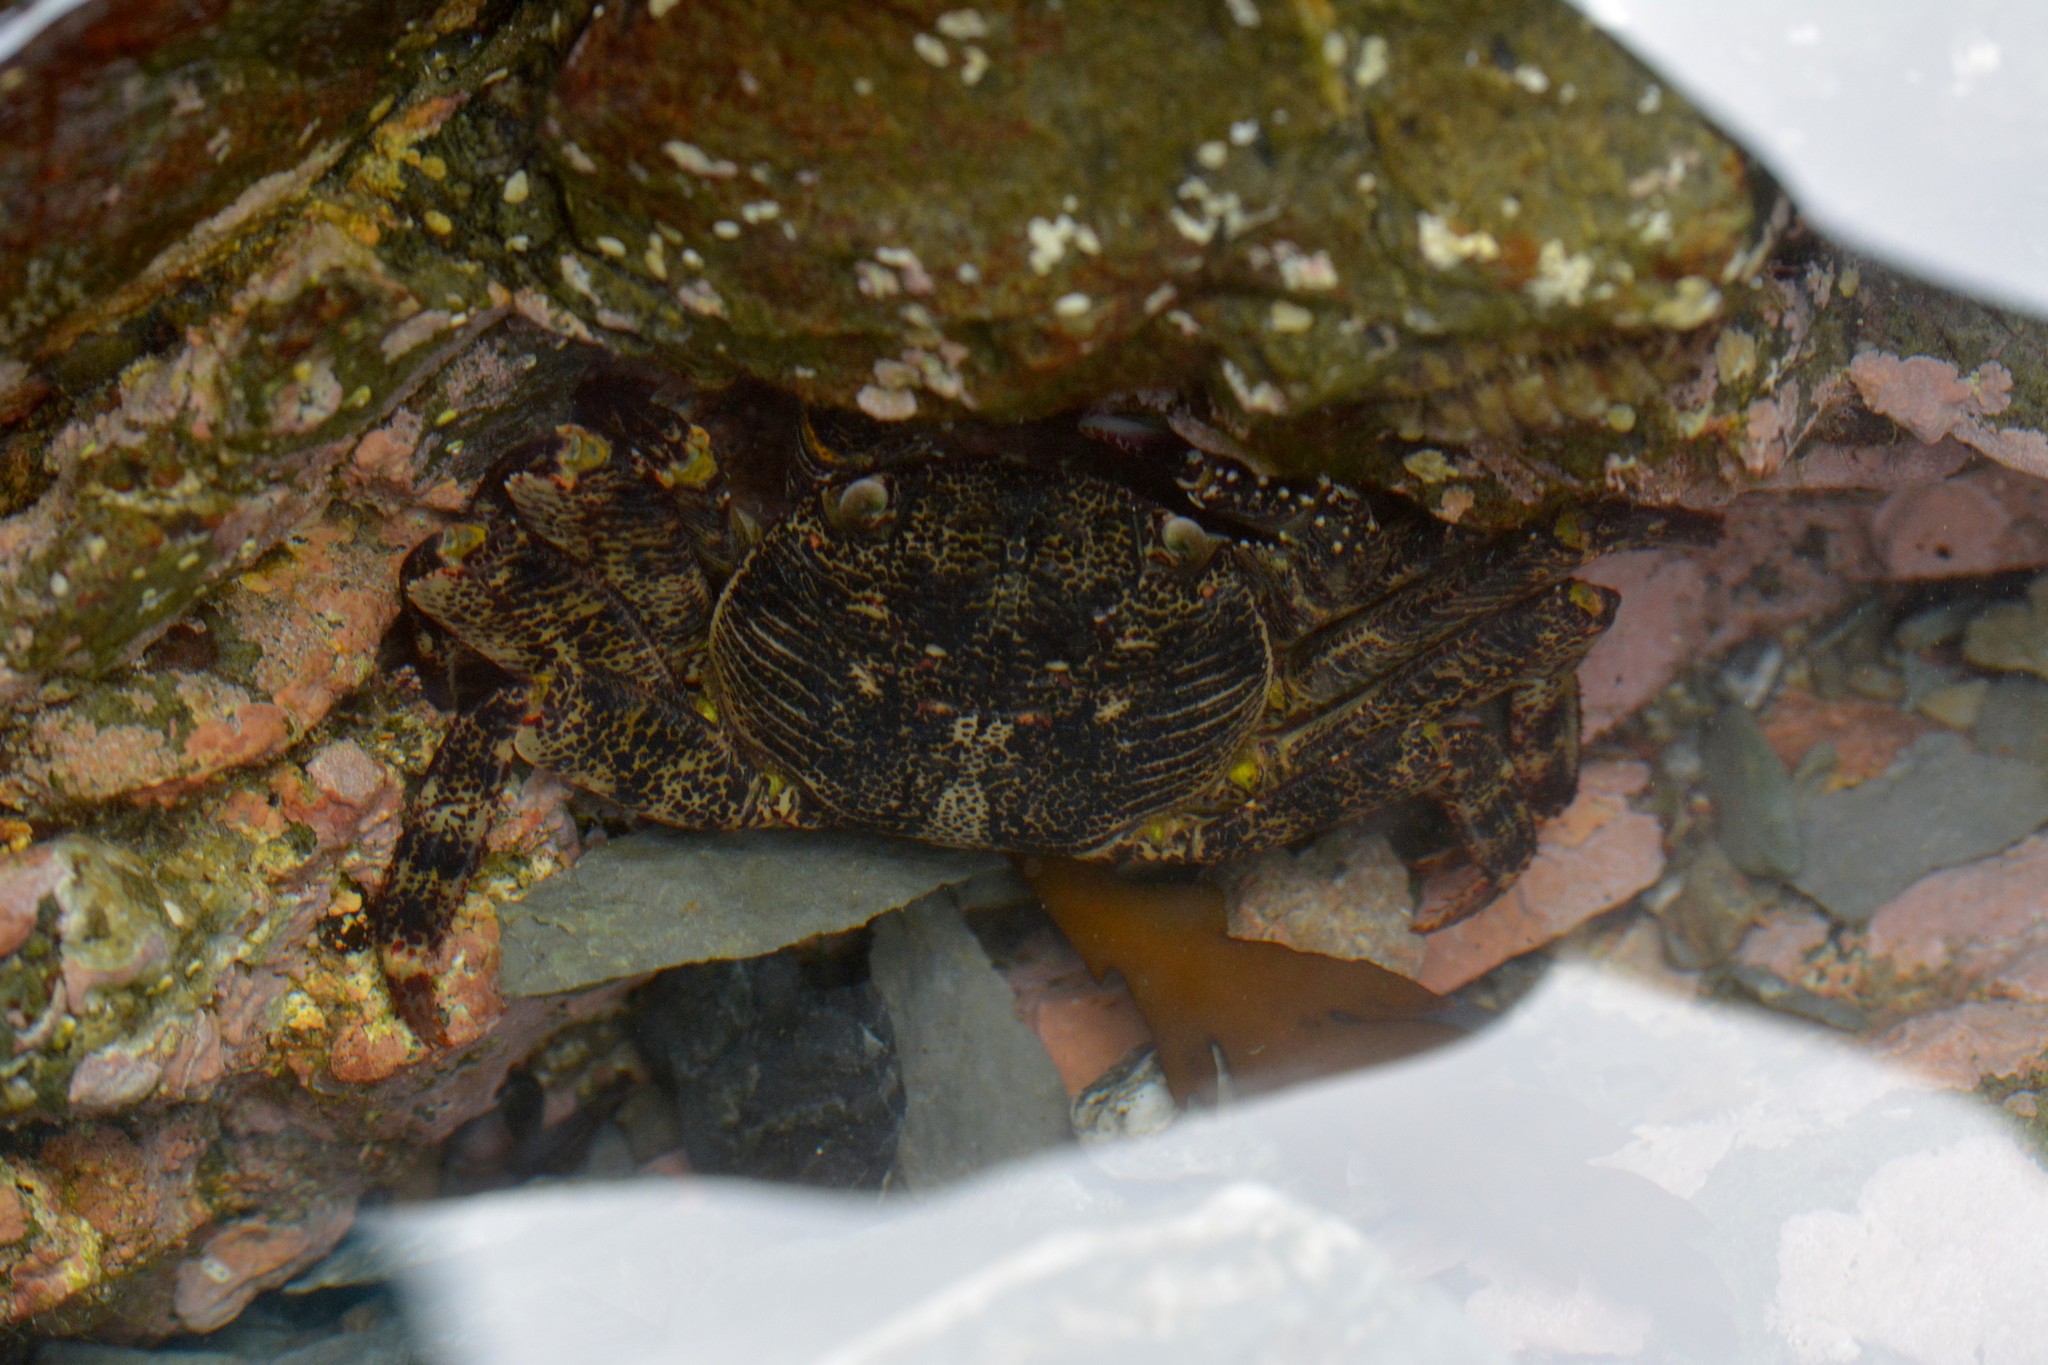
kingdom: Animalia
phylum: Arthropoda
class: Malacostraca
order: Decapoda
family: Grapsidae
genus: Leptograpsus
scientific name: Leptograpsus variegatus
